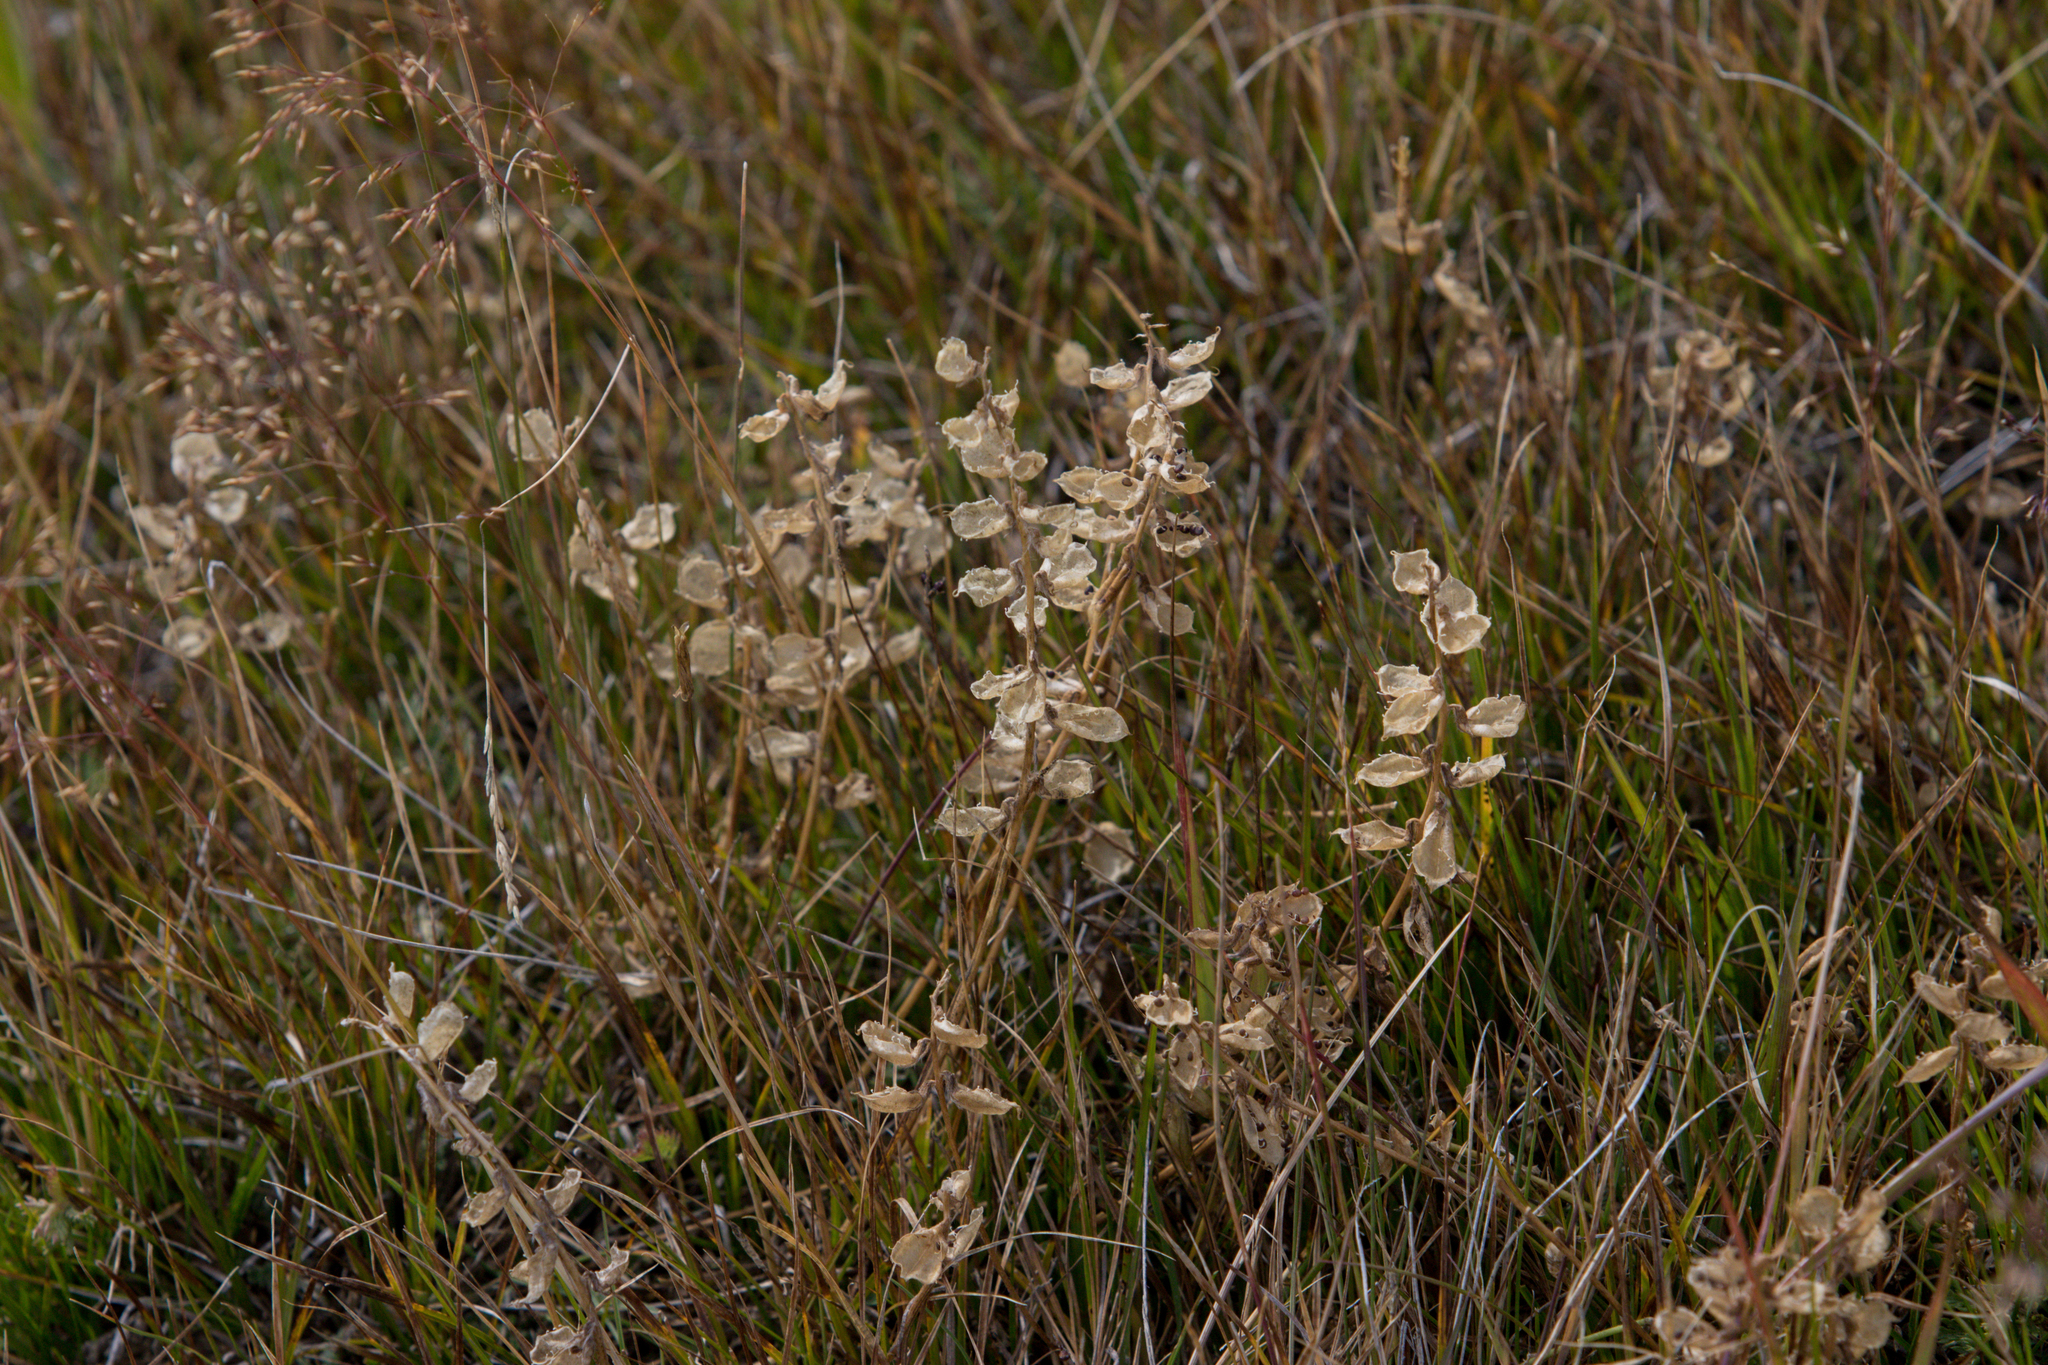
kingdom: Plantae
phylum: Tracheophyta
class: Magnoliopsida
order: Fabales
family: Fabaceae
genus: Oxytropis
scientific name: Oxytropis glabra
